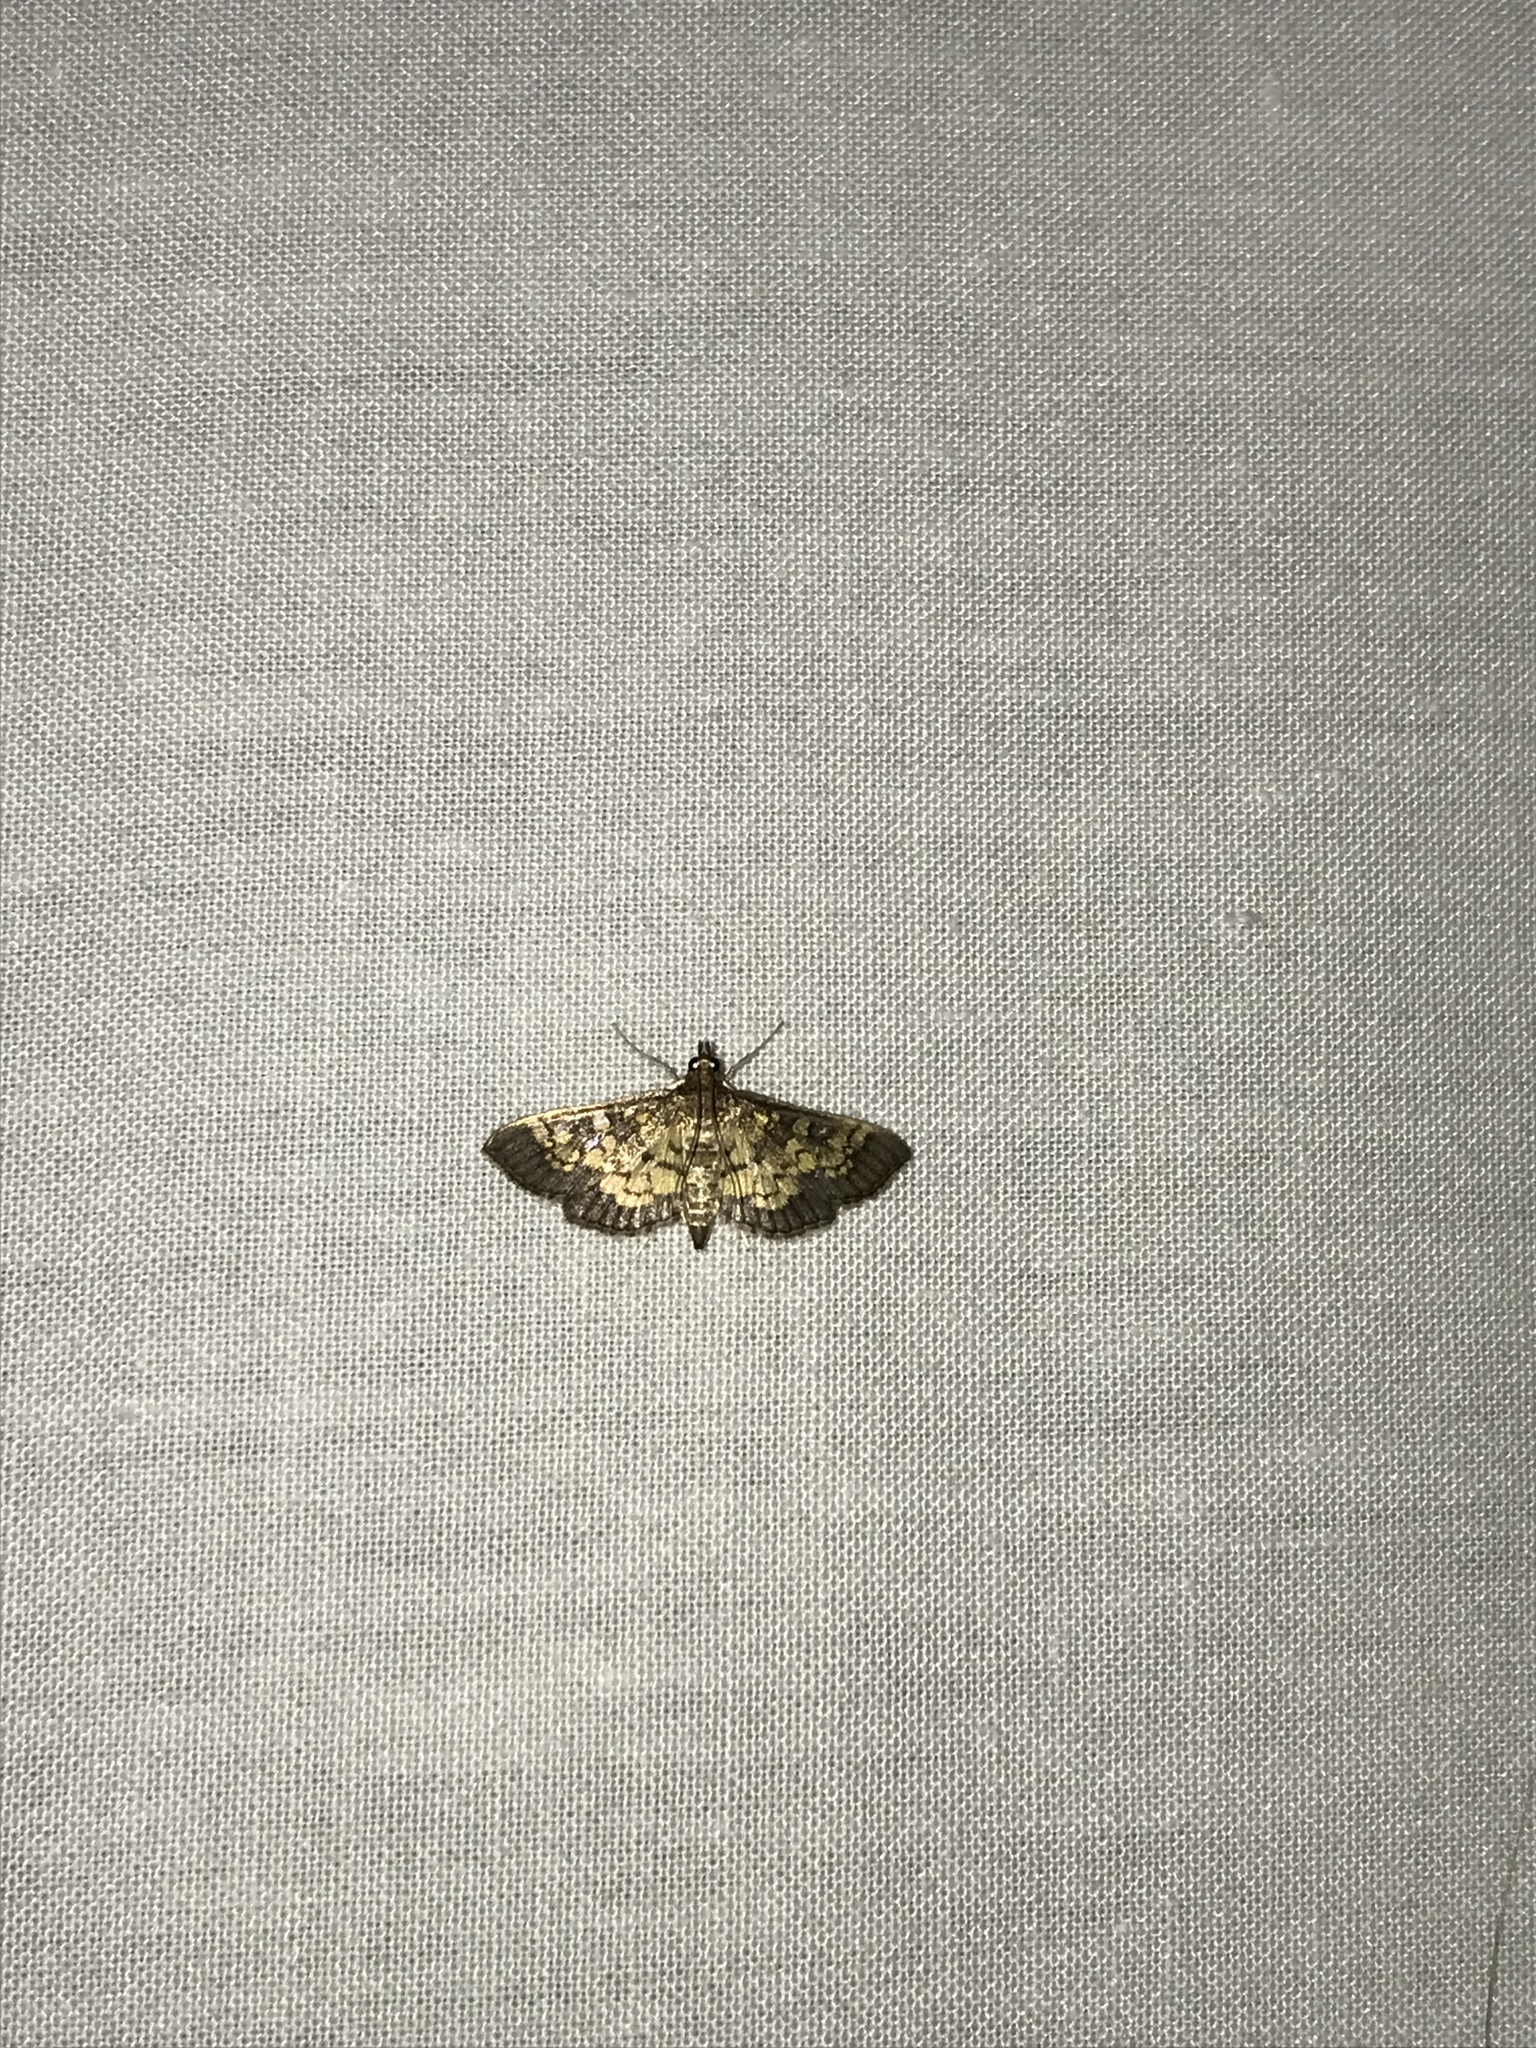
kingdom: Animalia
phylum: Arthropoda
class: Insecta
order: Lepidoptera
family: Crambidae
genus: Epipagis
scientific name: Epipagis adipaloides
